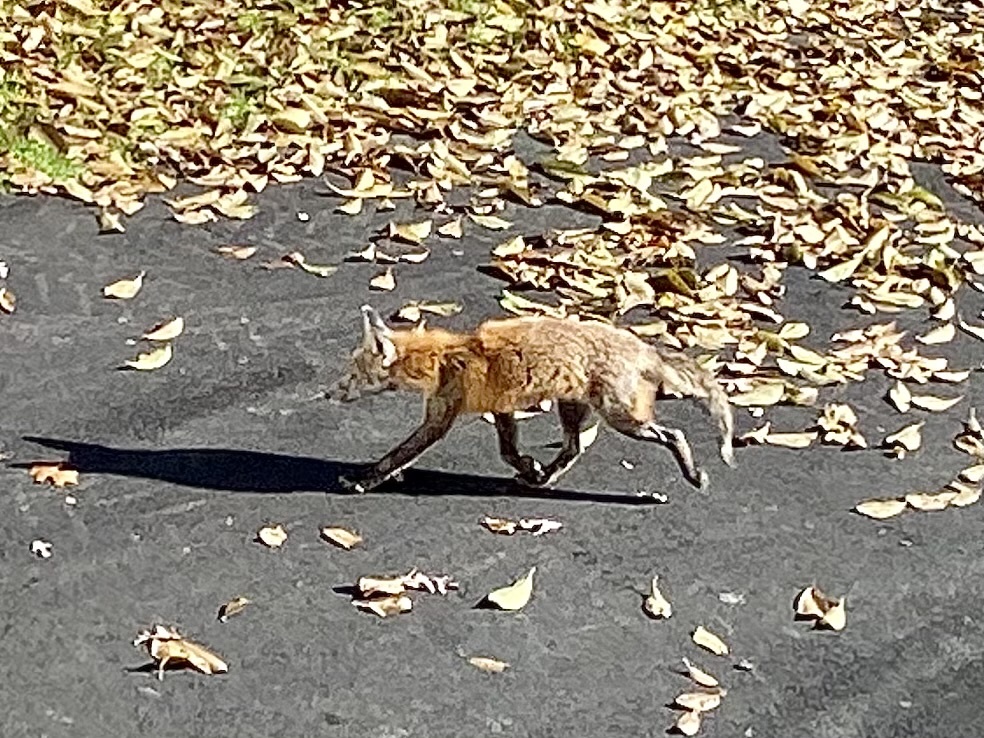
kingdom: Animalia
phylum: Chordata
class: Mammalia
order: Carnivora
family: Canidae
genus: Vulpes
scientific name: Vulpes vulpes
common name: Red fox
